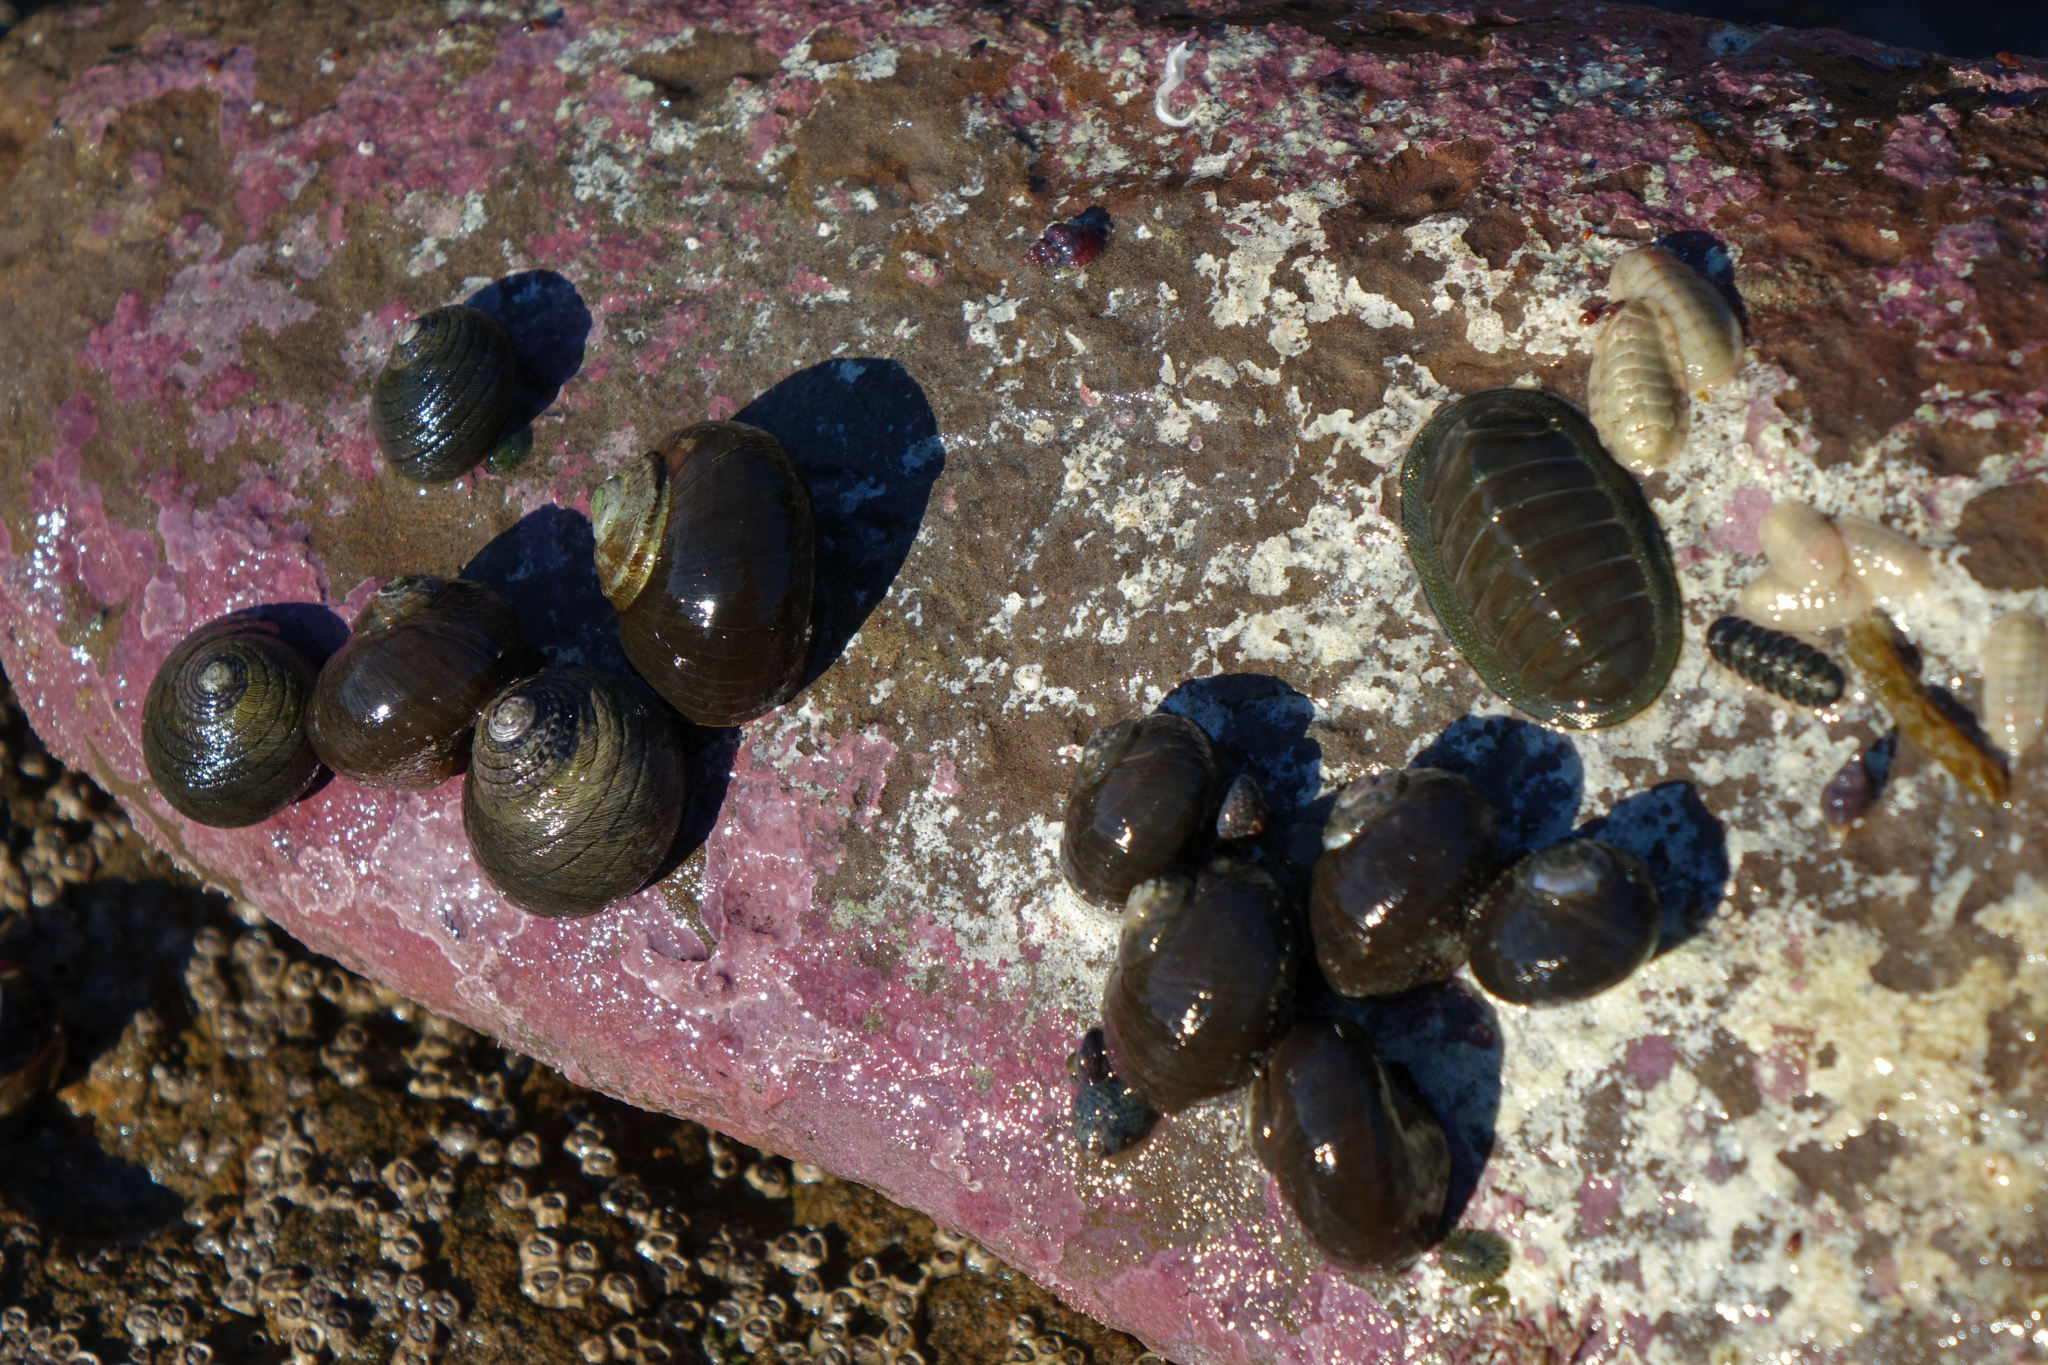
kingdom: Animalia
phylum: Mollusca
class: Gastropoda
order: Trochida
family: Trochidae
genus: Diloma
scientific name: Diloma aethiops
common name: Scorched monodont
